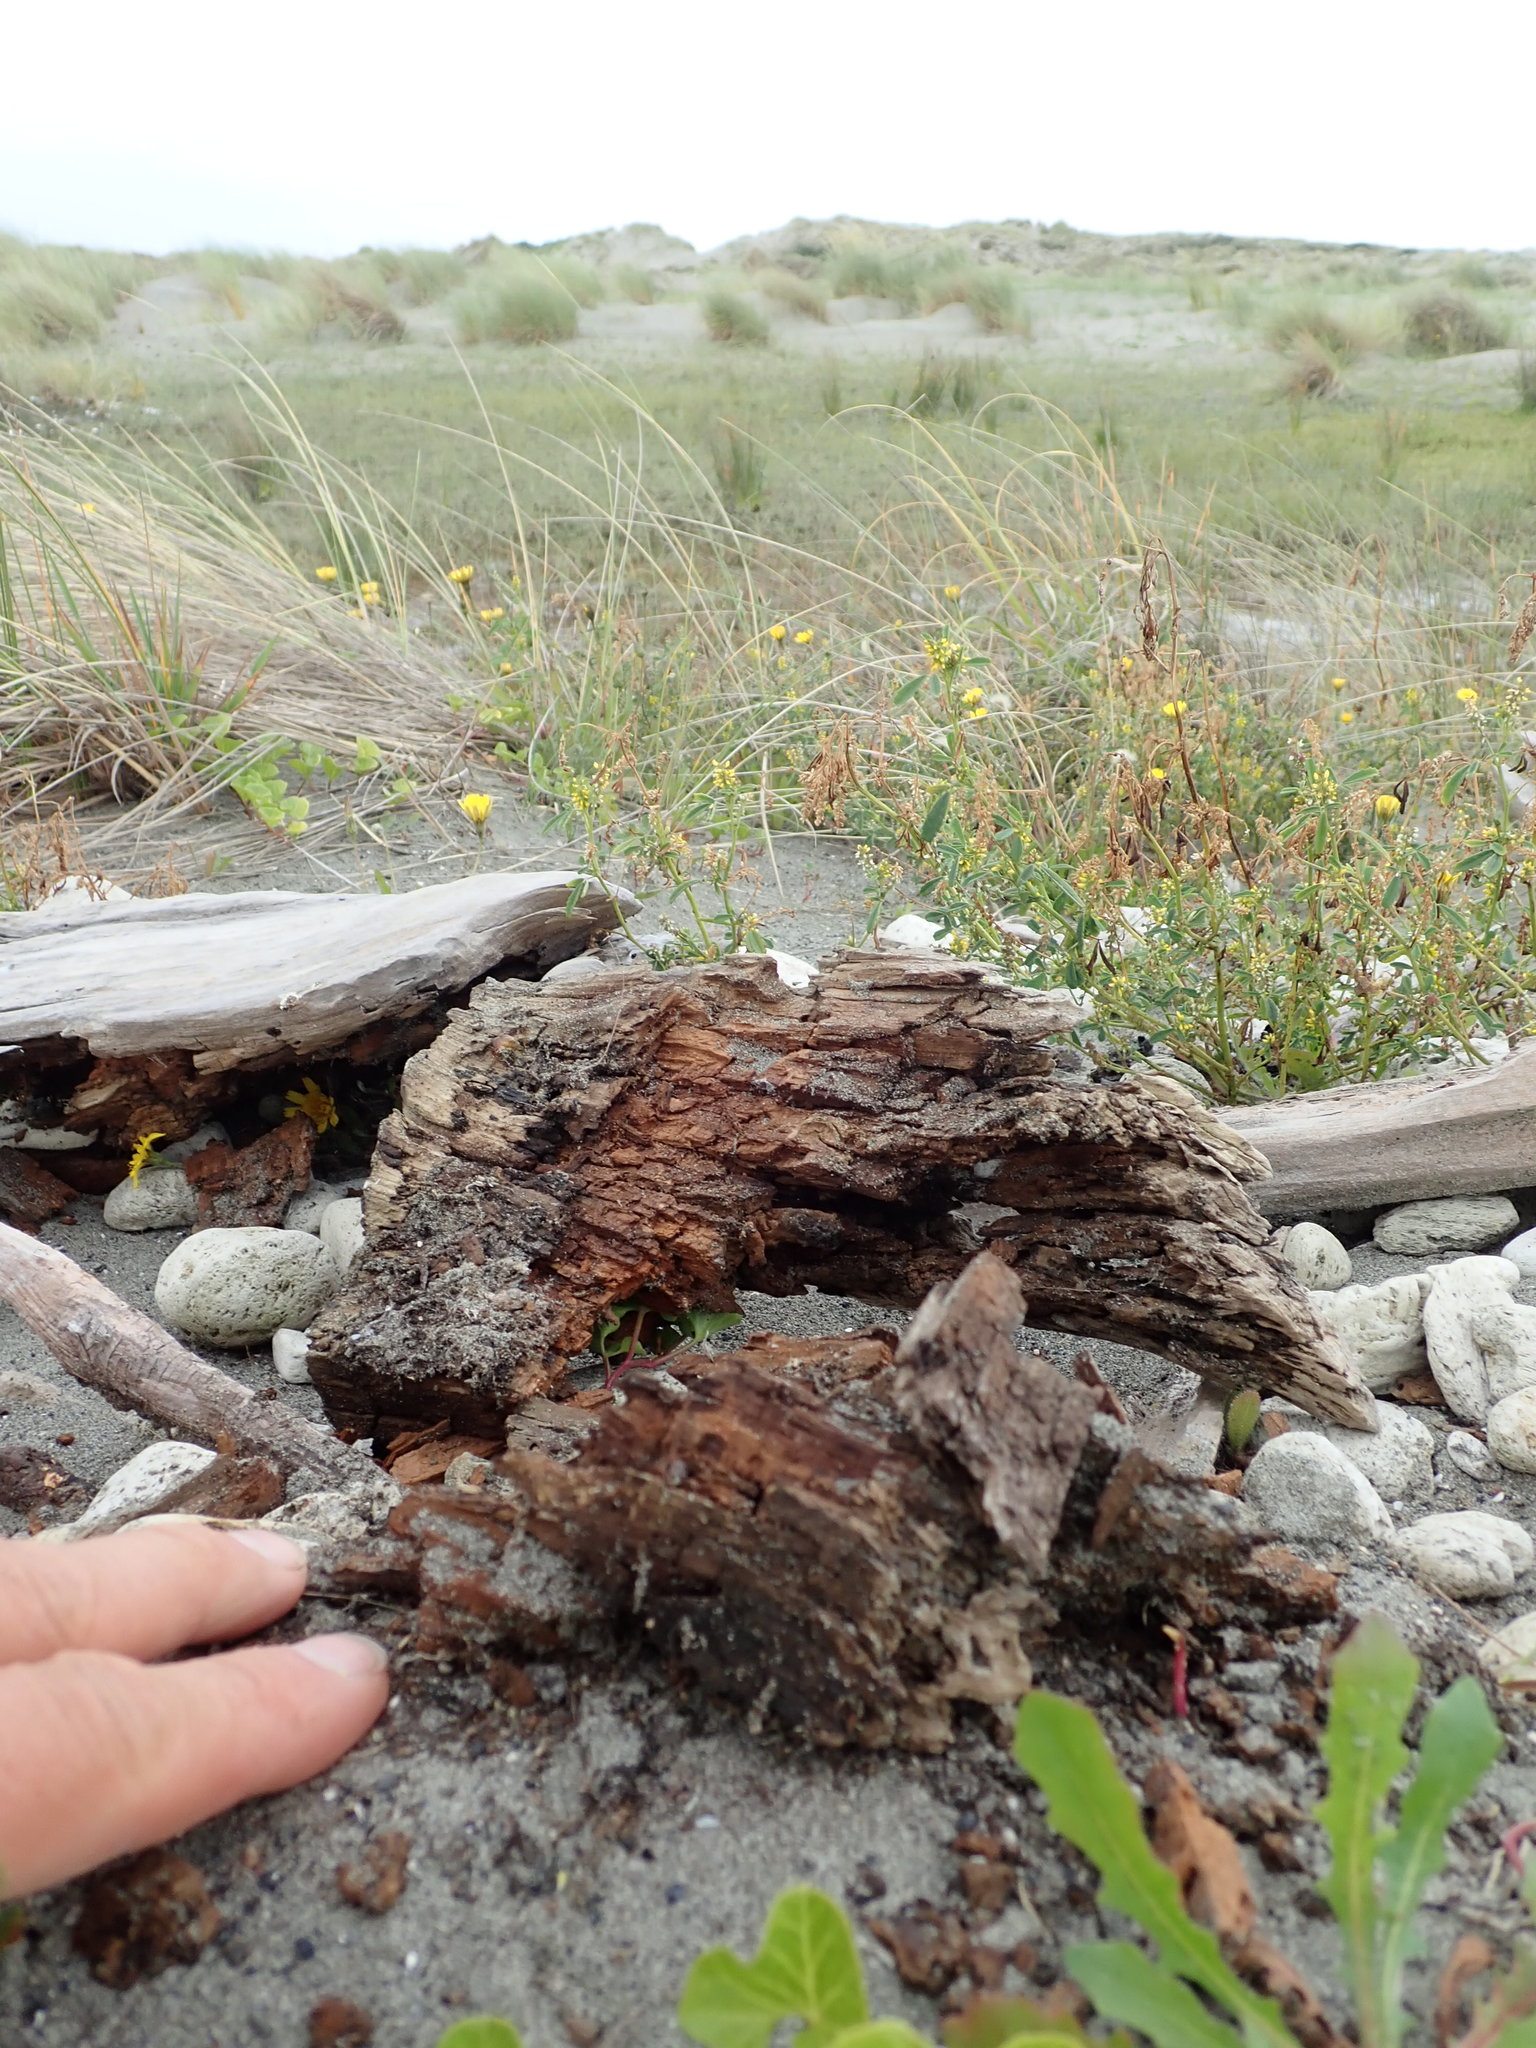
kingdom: Animalia
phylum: Arthropoda
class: Arachnida
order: Opiliones
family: Phalangiidae
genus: Phalangium
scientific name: Phalangium opilio
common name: Daddy longleg
